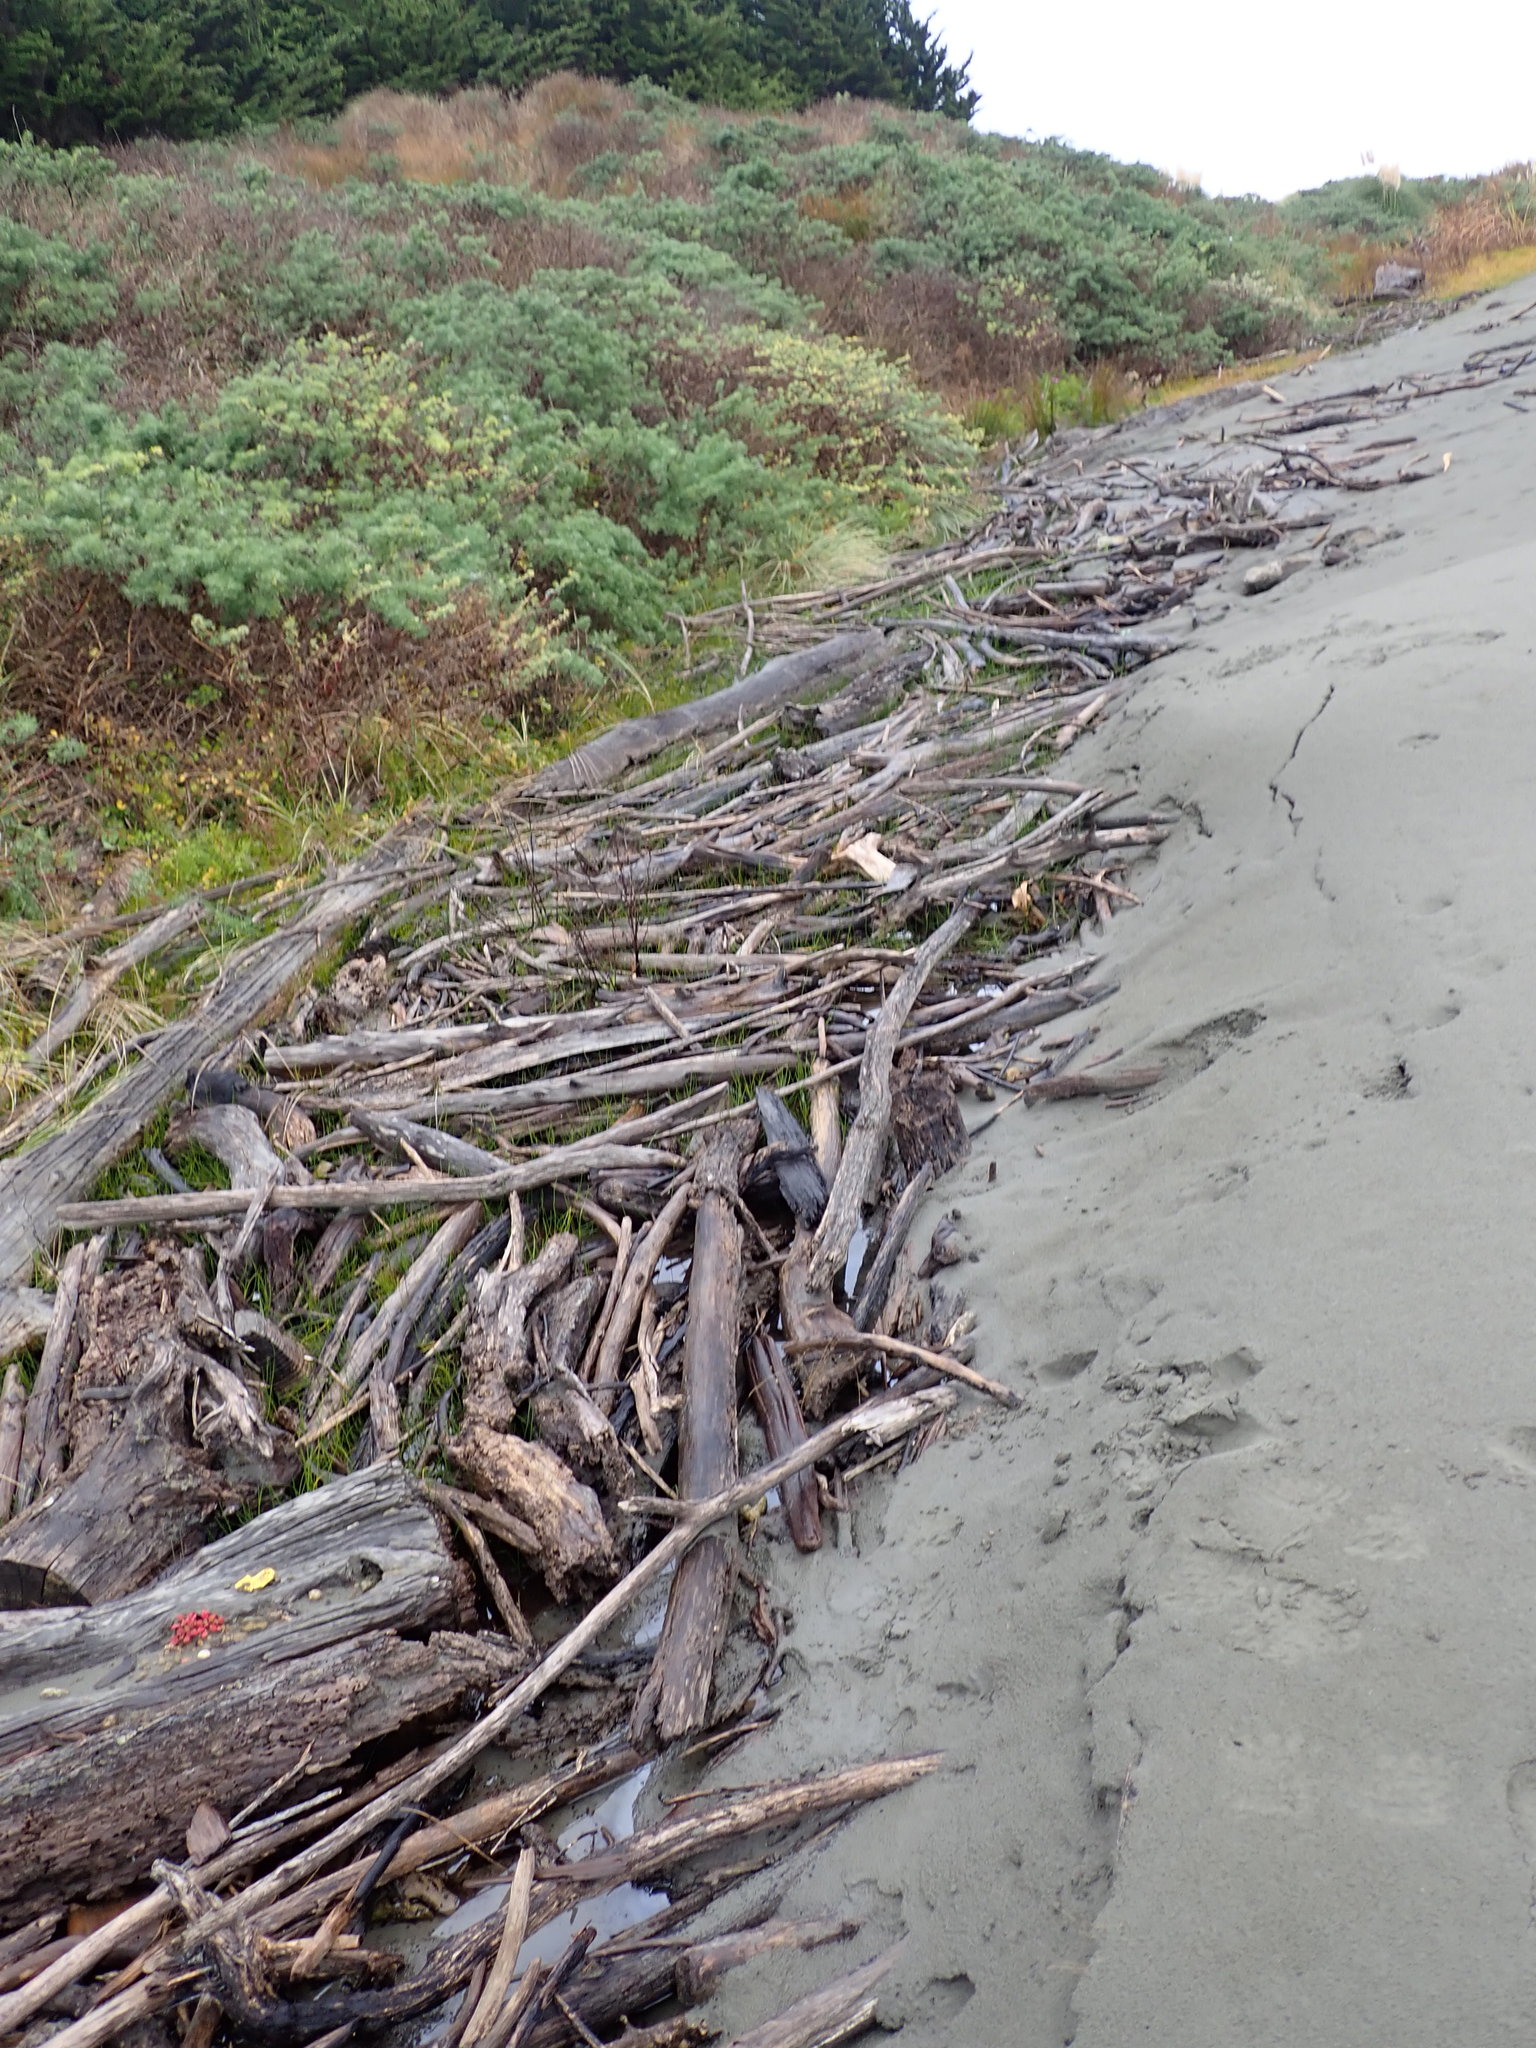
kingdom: Plantae
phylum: Tracheophyta
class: Magnoliopsida
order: Caryophyllales
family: Aizoaceae
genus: Tetragonia
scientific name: Tetragonia implexicoma
